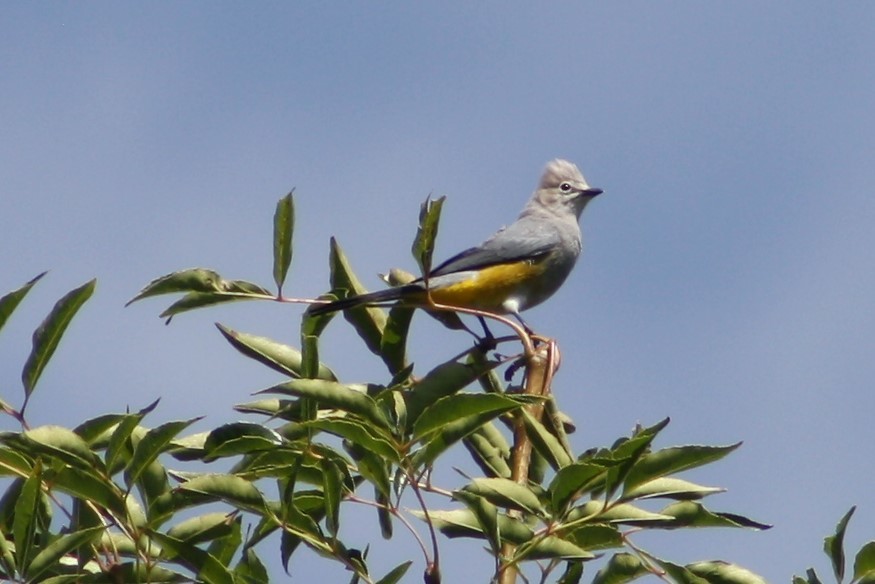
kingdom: Animalia
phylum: Chordata
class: Aves
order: Passeriformes
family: Ptilogonatidae
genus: Ptilogonys
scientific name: Ptilogonys cinereus
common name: Gray silky-flycatcher
